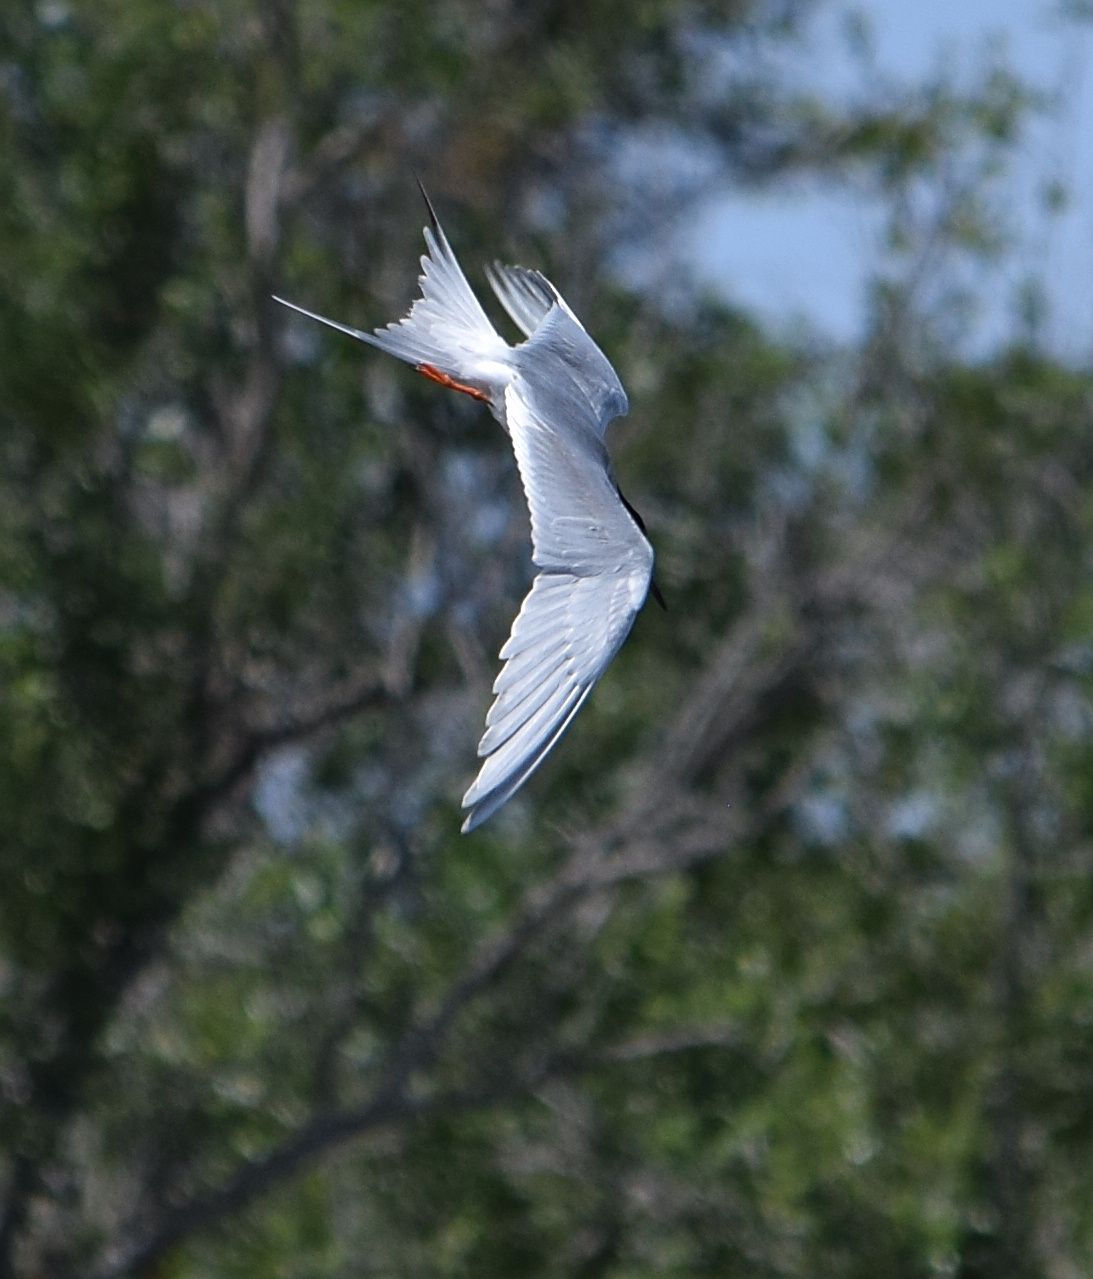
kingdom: Animalia
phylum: Chordata
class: Aves
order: Charadriiformes
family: Laridae
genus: Sterna
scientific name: Sterna forsteri
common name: Forster's tern
